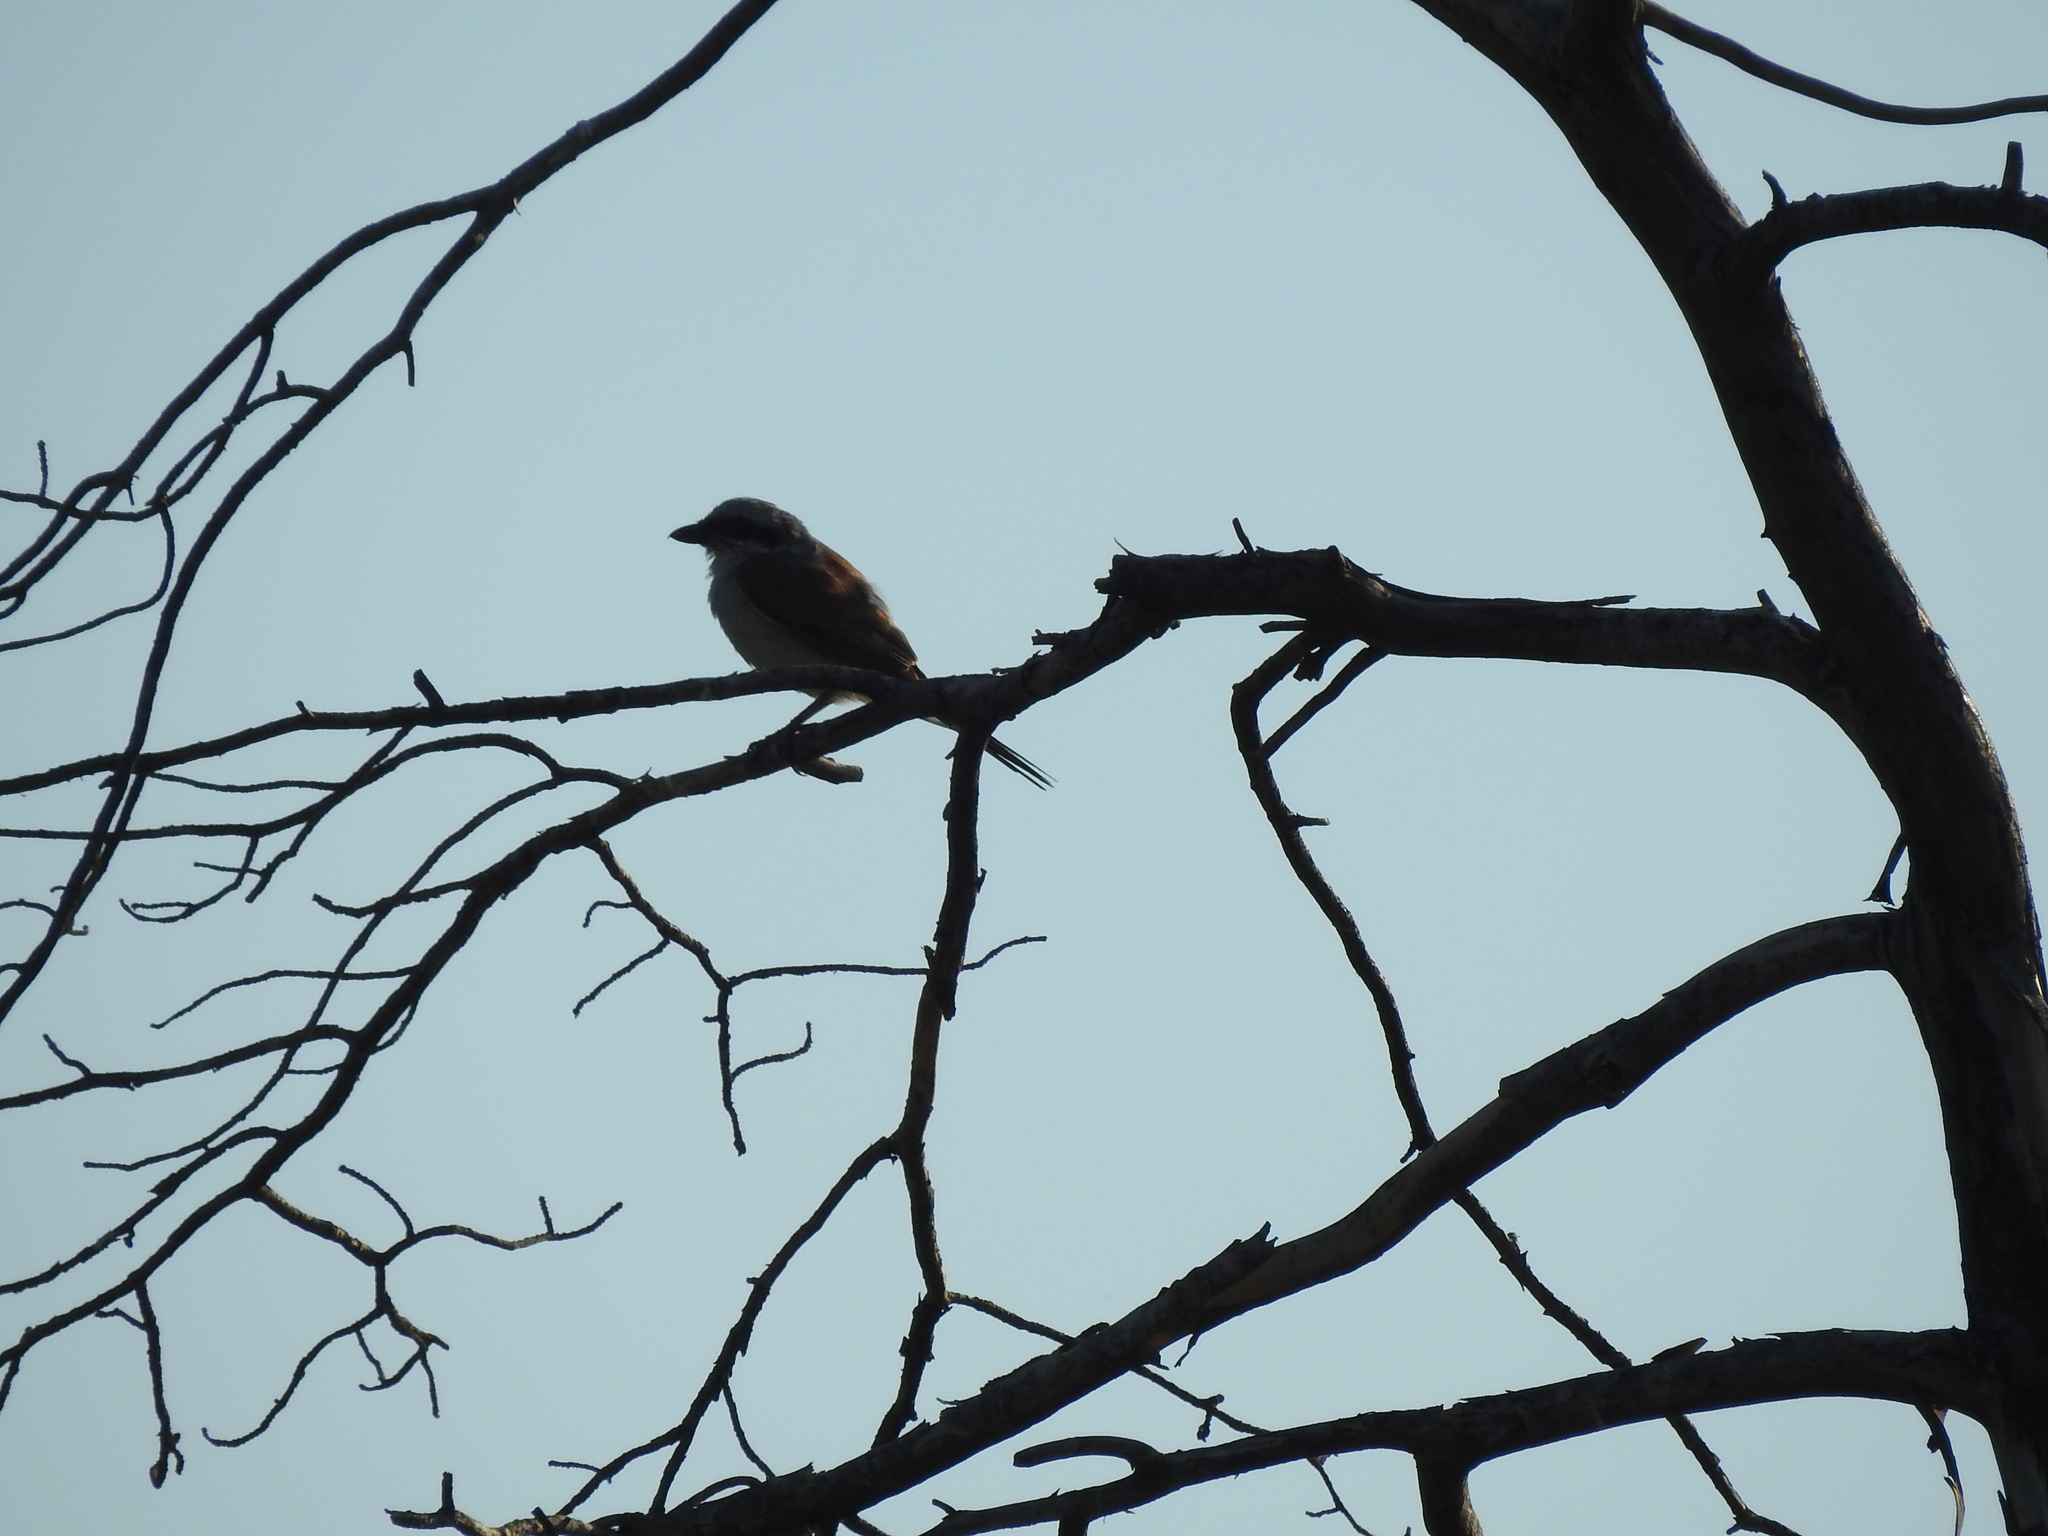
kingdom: Animalia
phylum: Chordata
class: Aves
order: Passeriformes
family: Laniidae
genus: Lanius
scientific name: Lanius collurio
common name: Red-backed shrike
